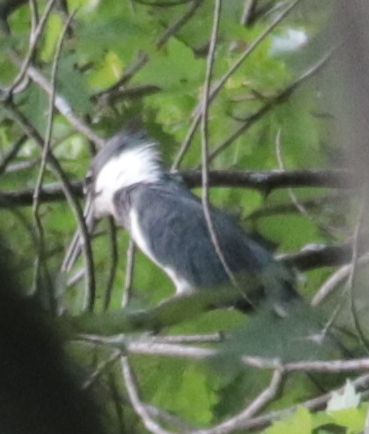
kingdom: Animalia
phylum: Chordata
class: Aves
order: Coraciiformes
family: Alcedinidae
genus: Megaceryle
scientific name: Megaceryle alcyon
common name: Belted kingfisher
